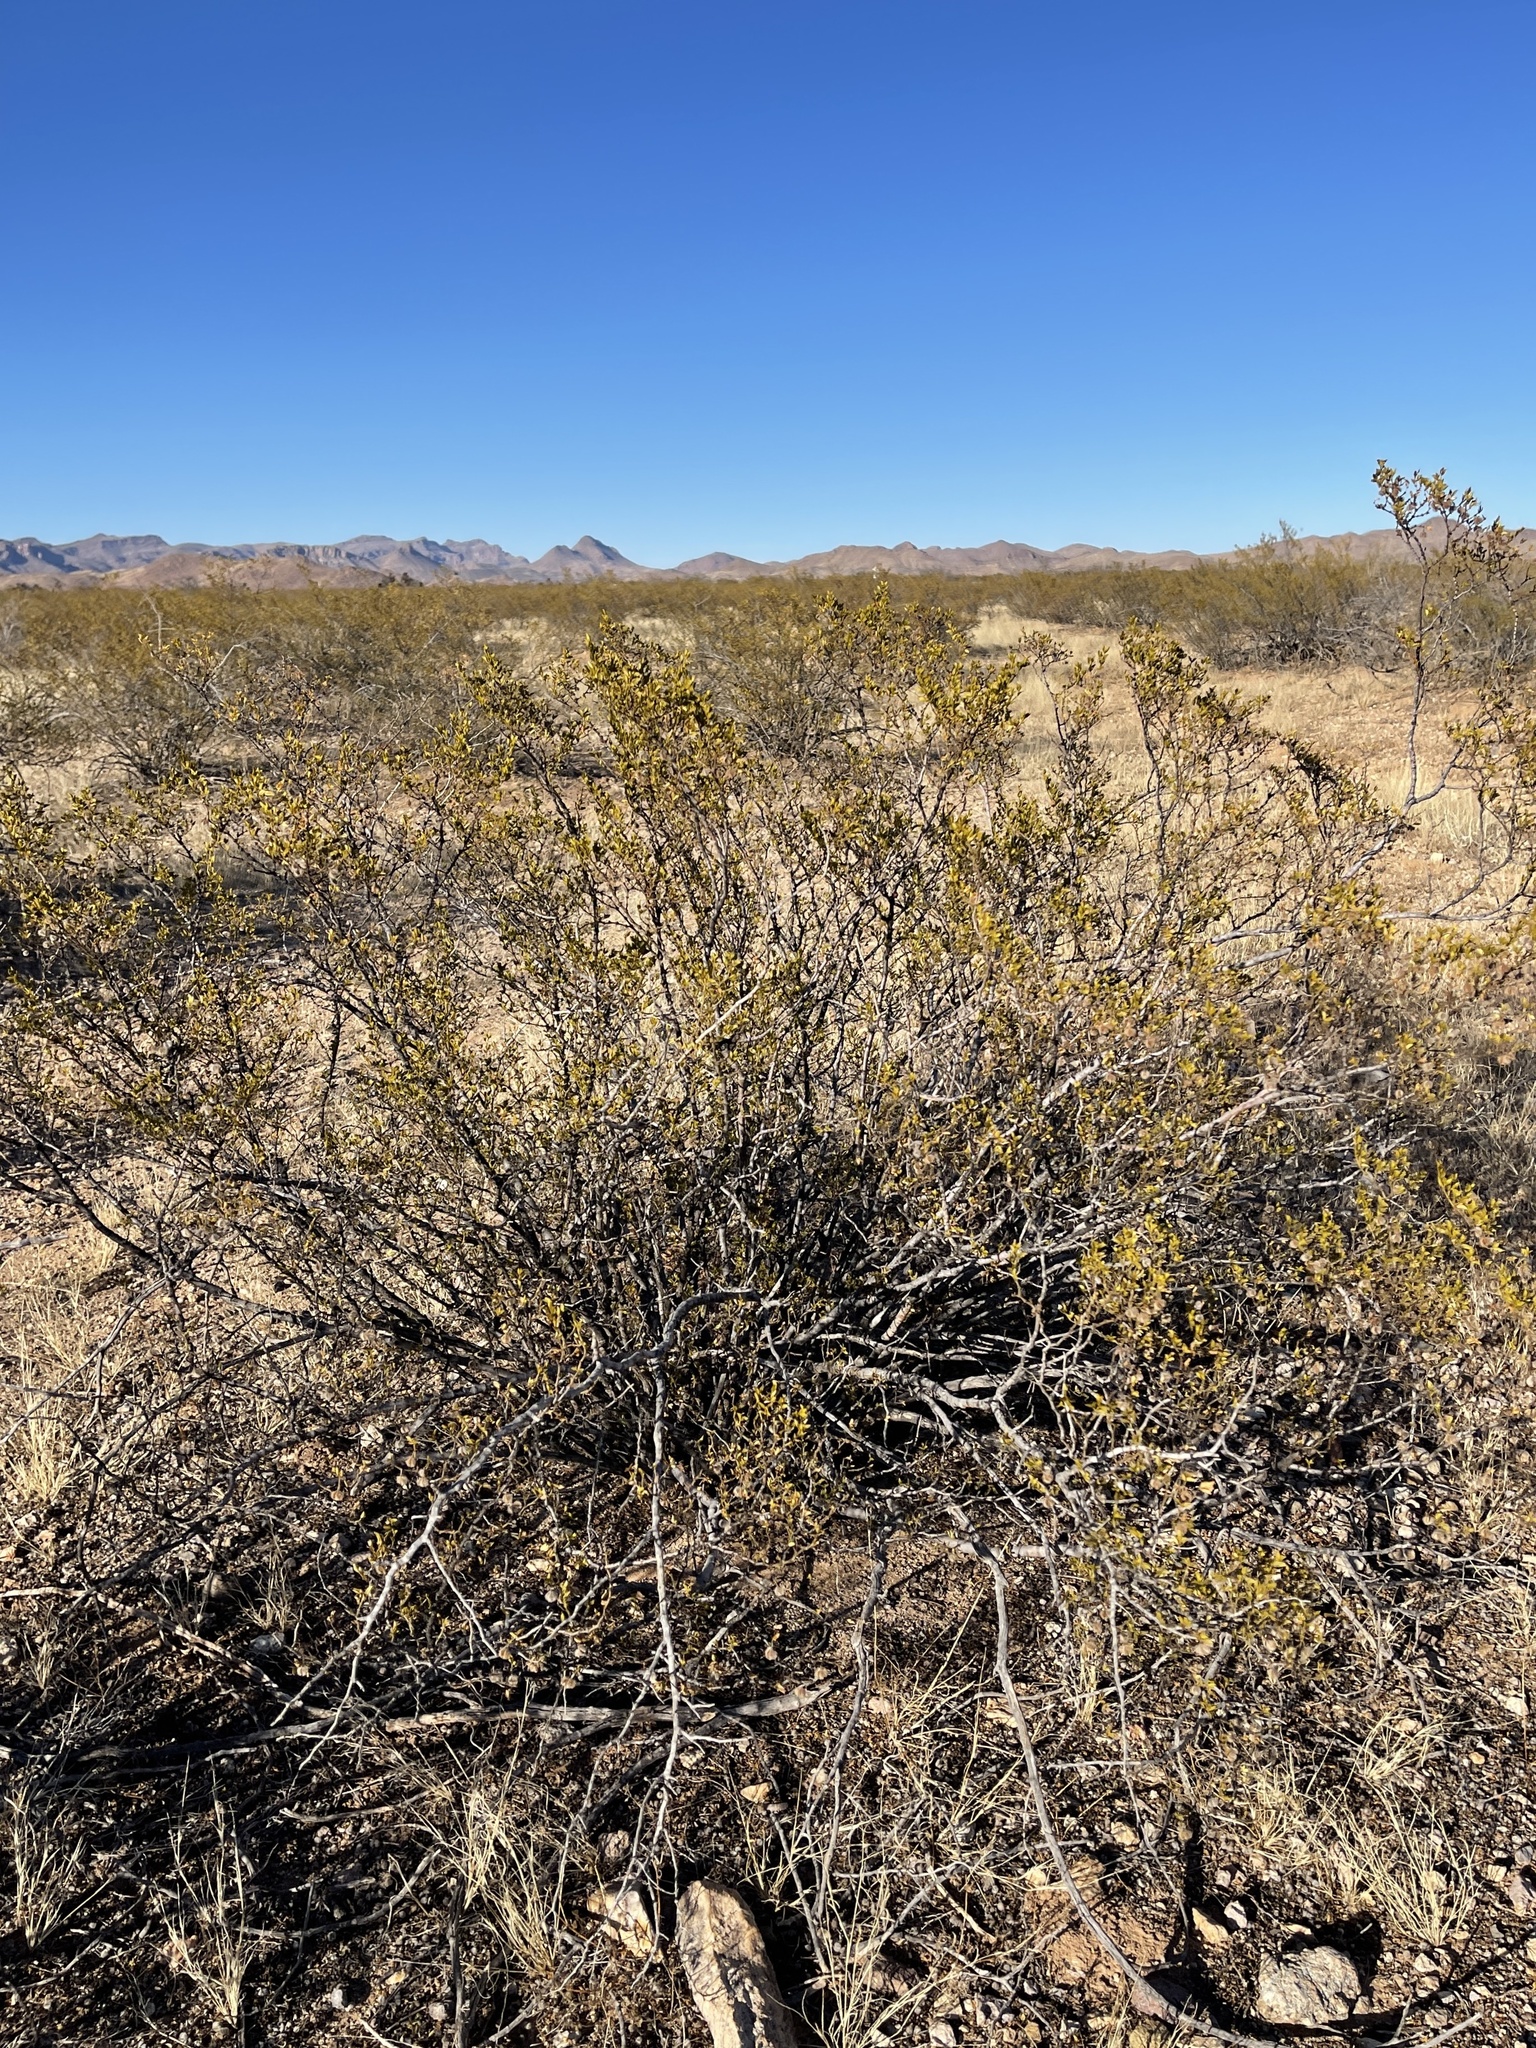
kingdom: Plantae
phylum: Tracheophyta
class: Magnoliopsida
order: Zygophyllales
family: Zygophyllaceae
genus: Larrea
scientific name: Larrea tridentata
